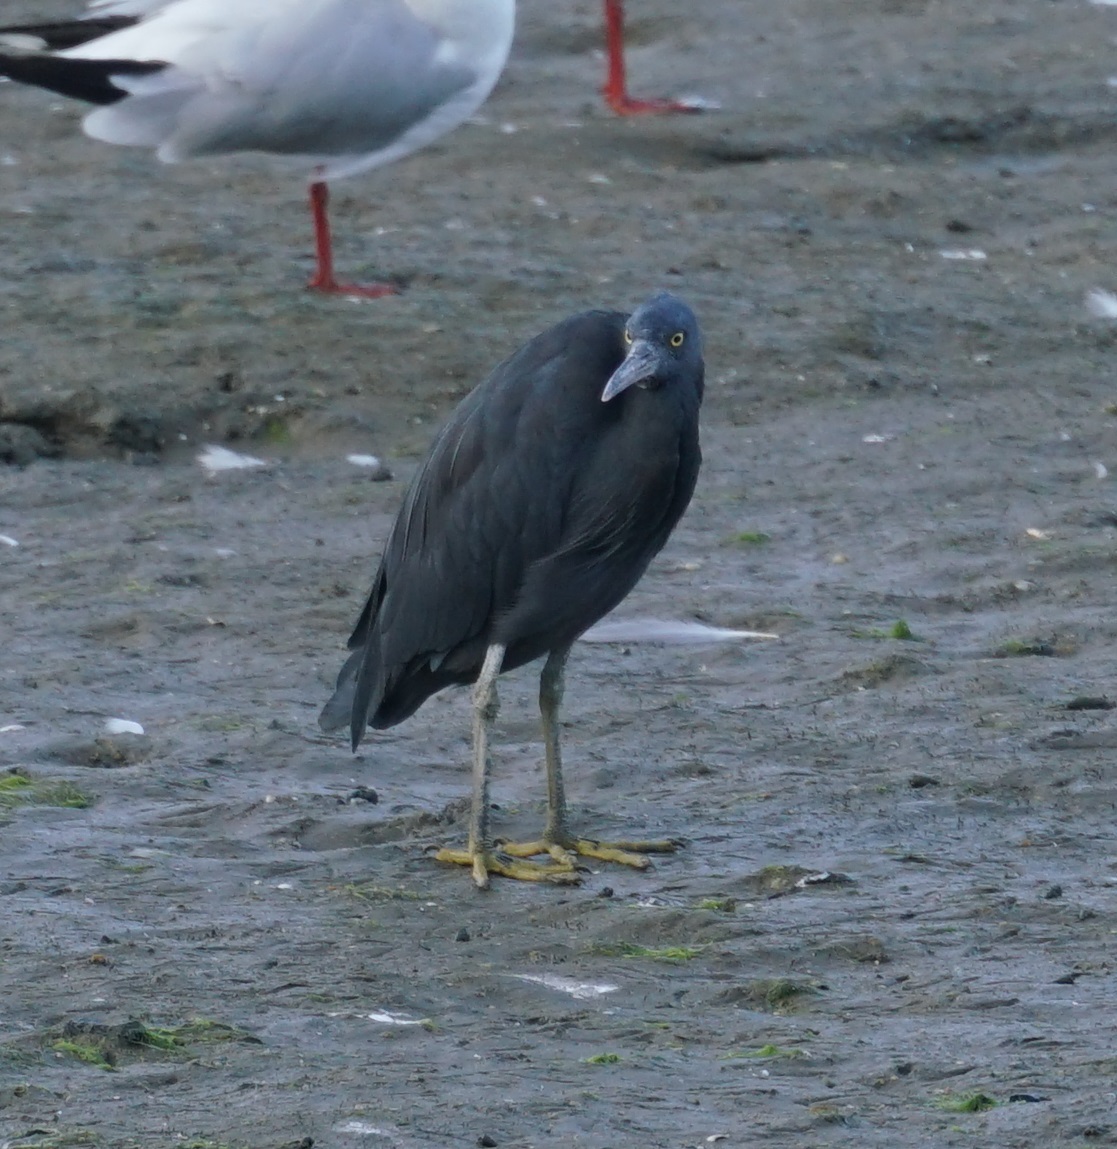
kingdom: Animalia
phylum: Chordata
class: Aves
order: Pelecaniformes
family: Ardeidae
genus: Egretta
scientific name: Egretta sacra
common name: Pacific reef heron
